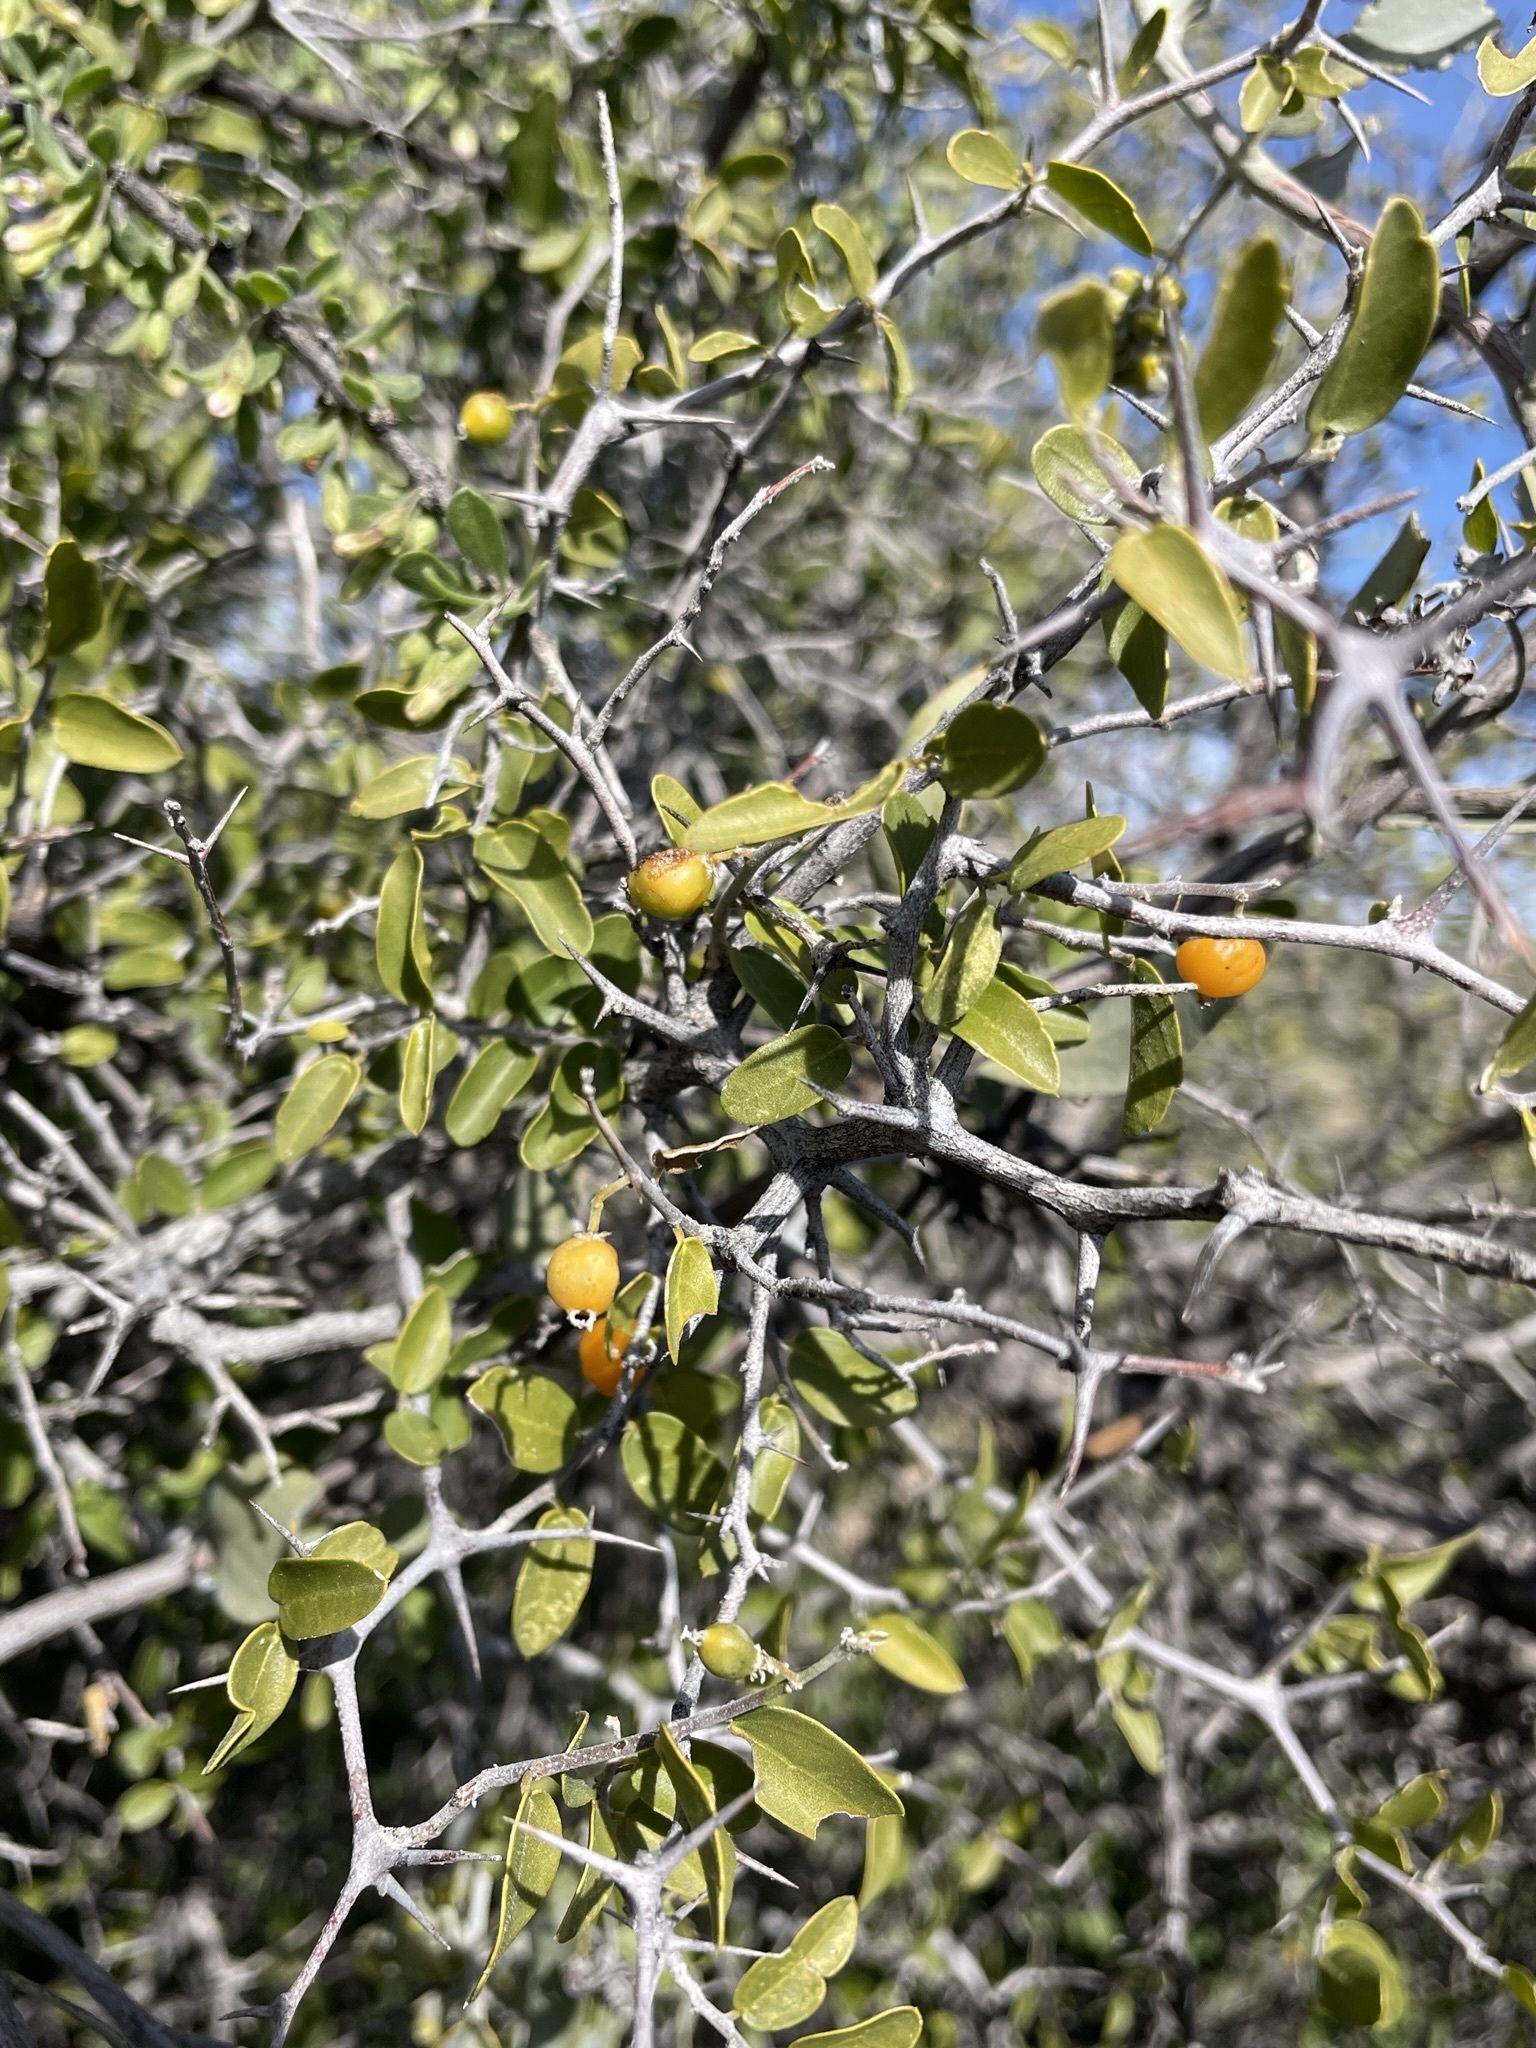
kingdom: Plantae
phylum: Tracheophyta
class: Magnoliopsida
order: Rosales
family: Cannabaceae
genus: Celtis
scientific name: Celtis pallida
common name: Desert hackberry
